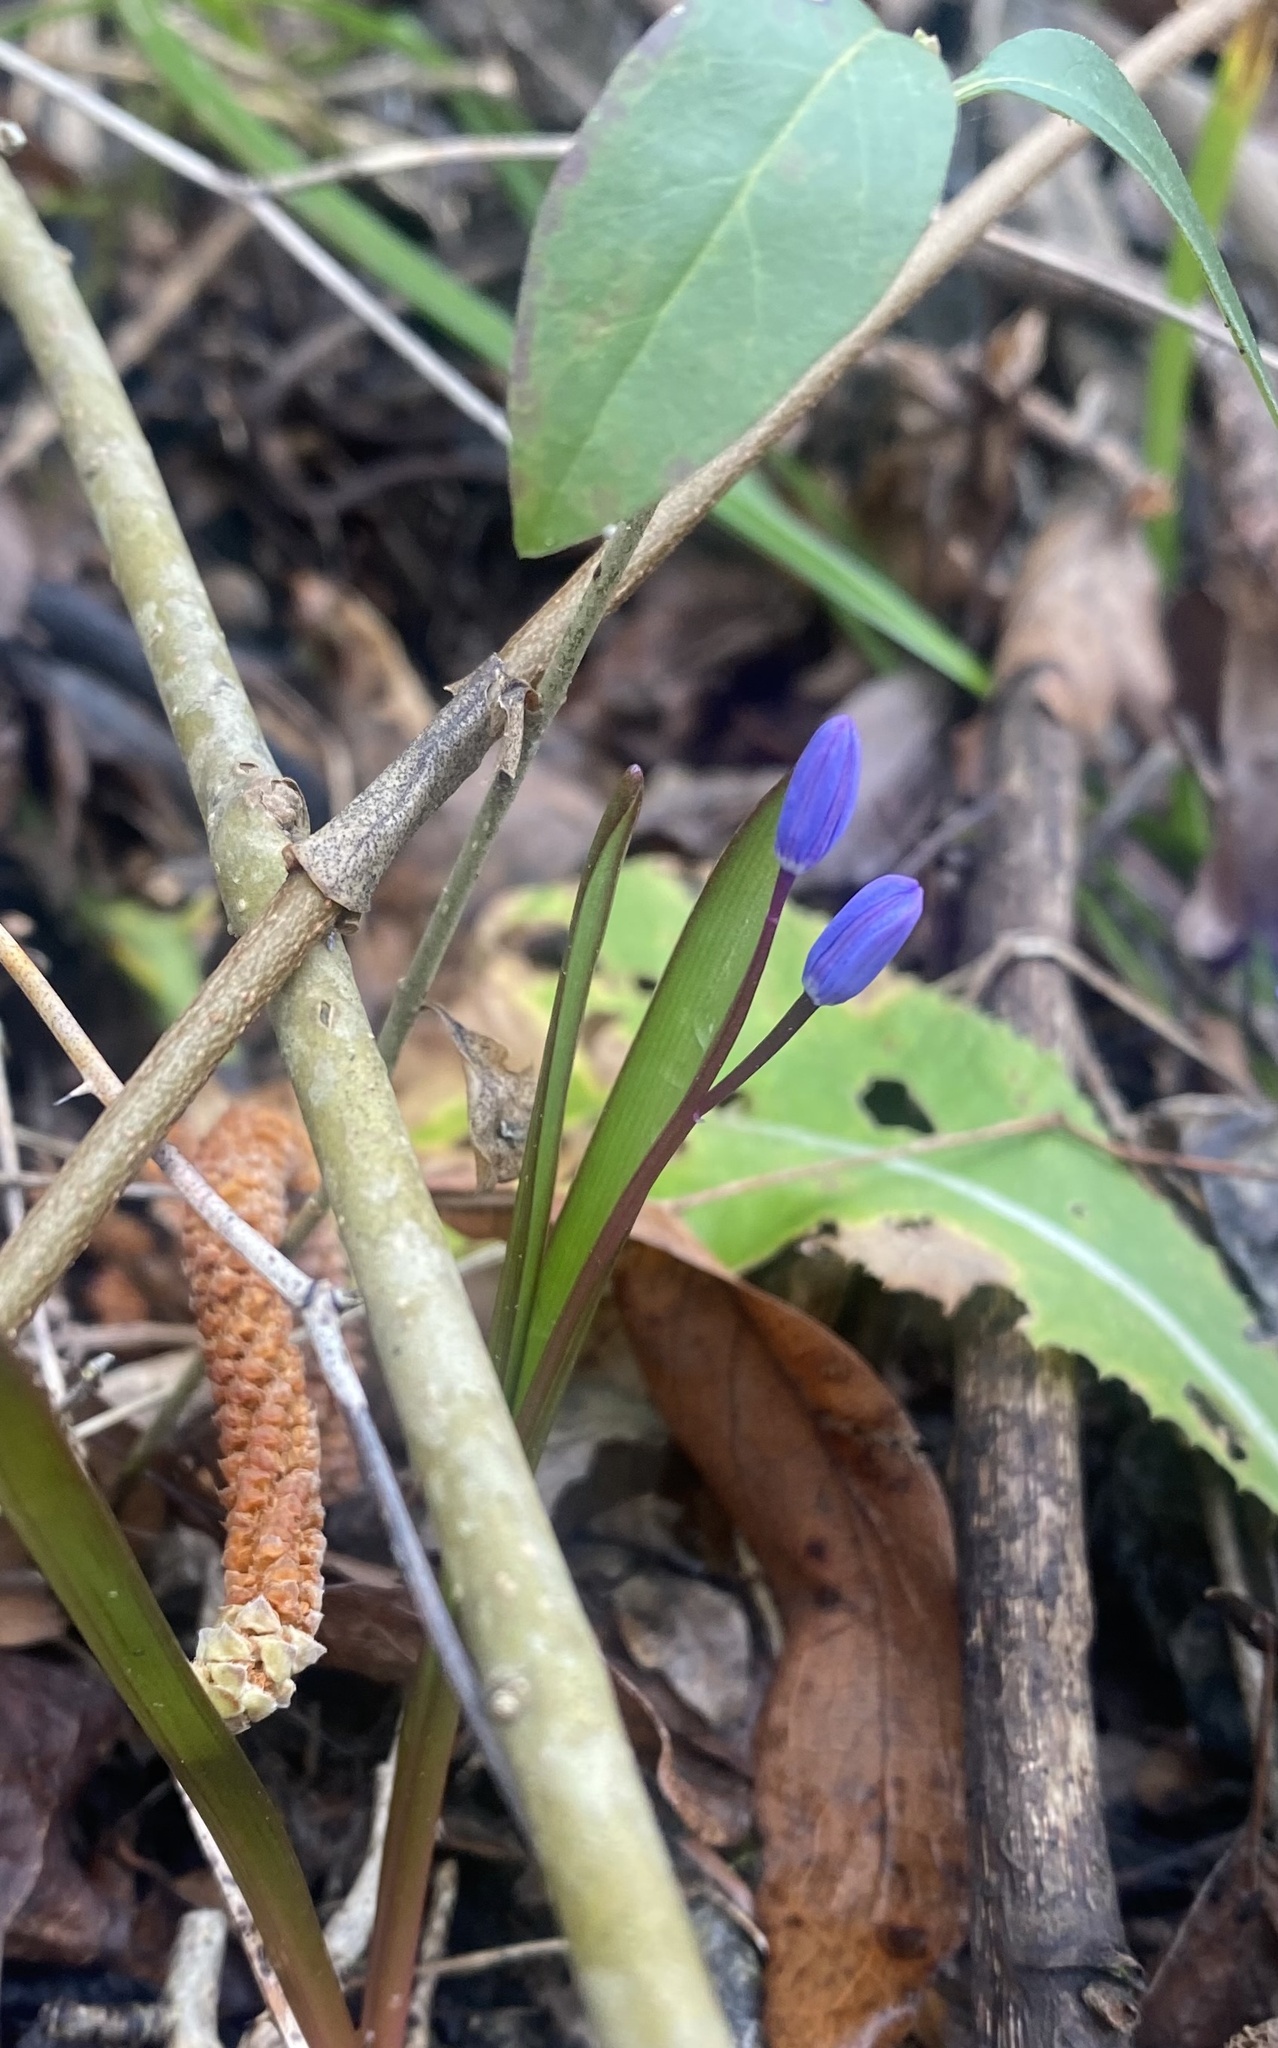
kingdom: Plantae
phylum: Tracheophyta
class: Liliopsida
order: Asparagales
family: Asparagaceae
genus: Scilla
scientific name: Scilla bifolia
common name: Alpine squill
